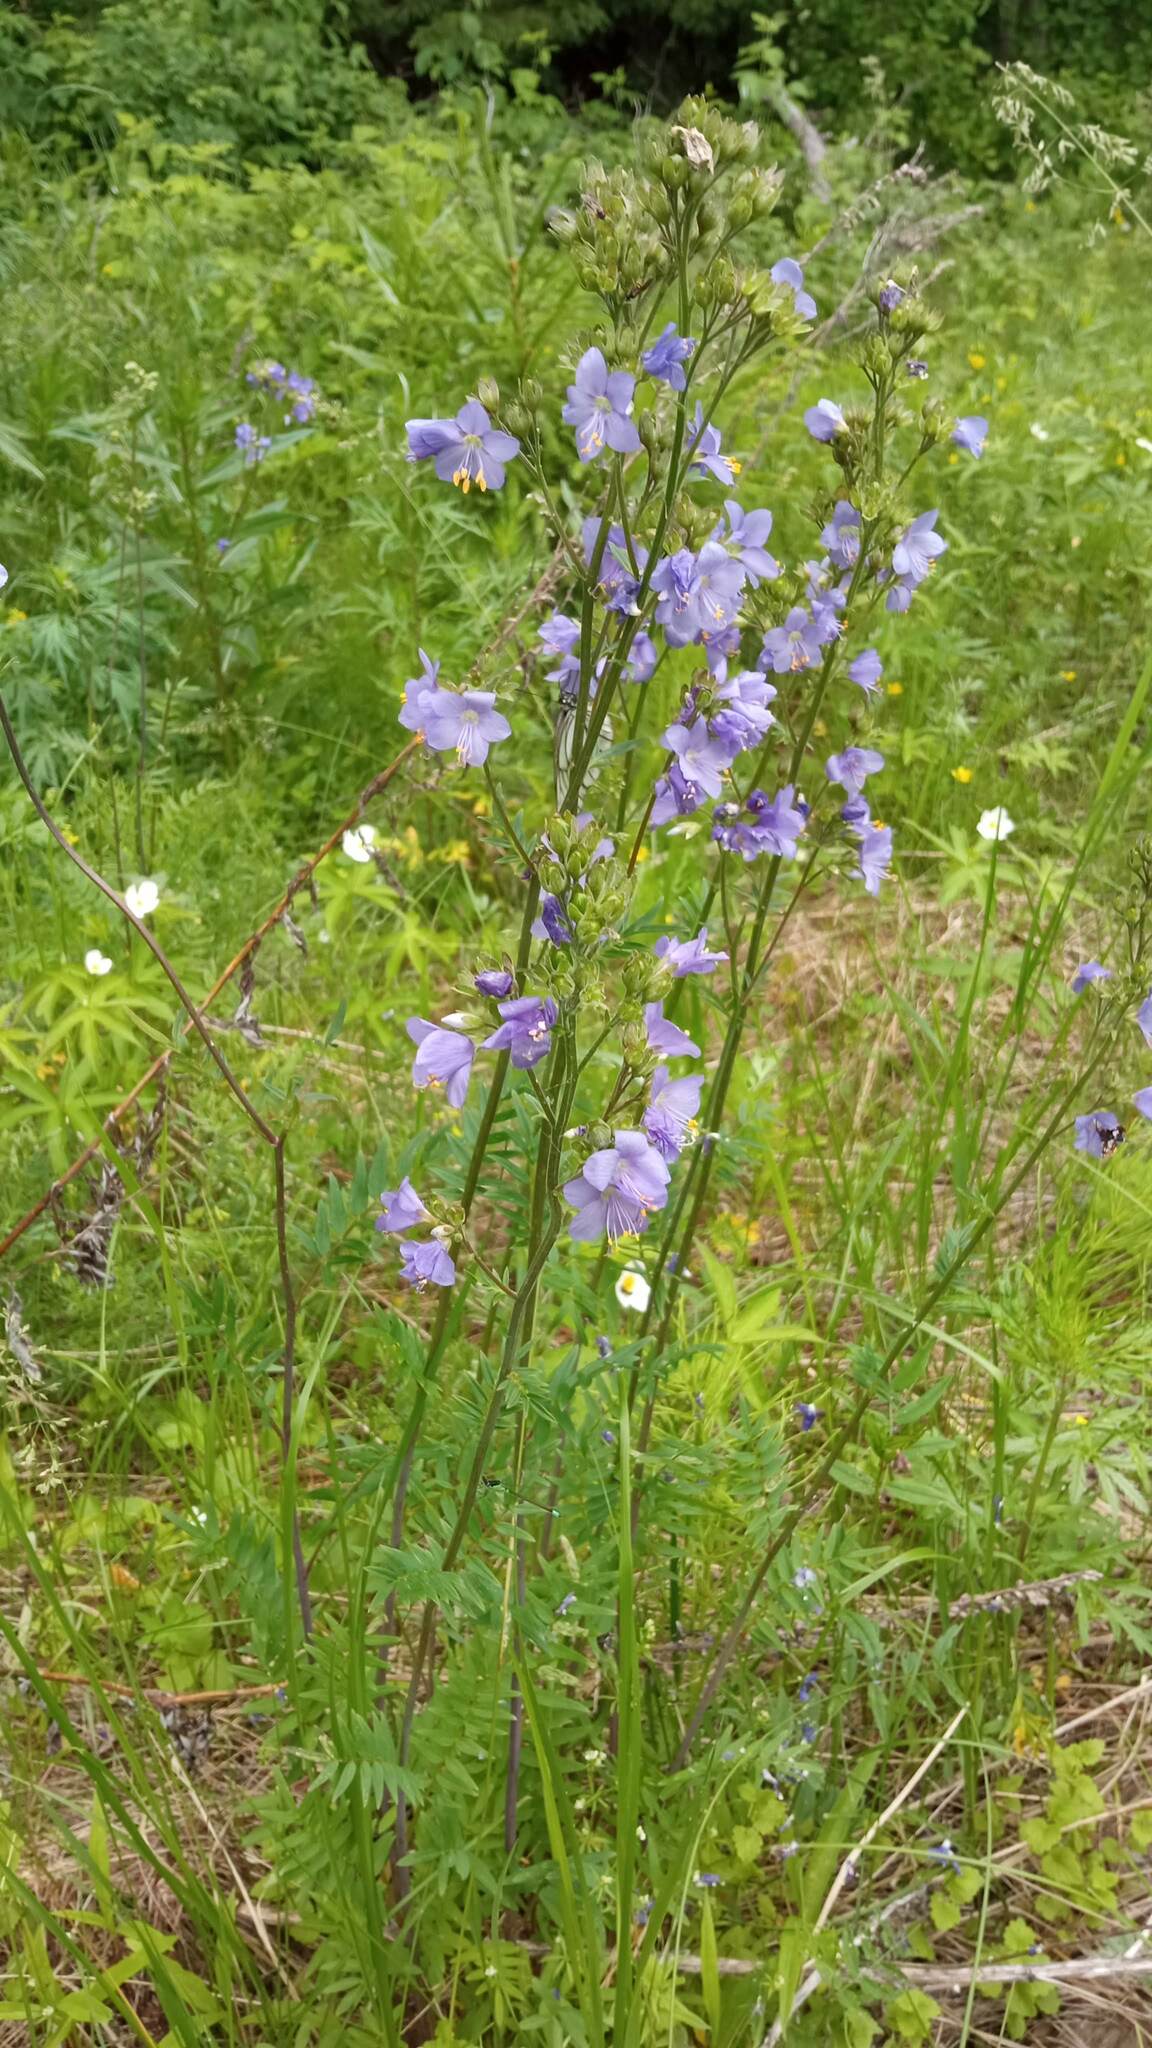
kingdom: Plantae
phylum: Tracheophyta
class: Magnoliopsida
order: Ericales
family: Polemoniaceae
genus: Polemonium
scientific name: Polemonium caeruleum
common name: Jacob's-ladder
